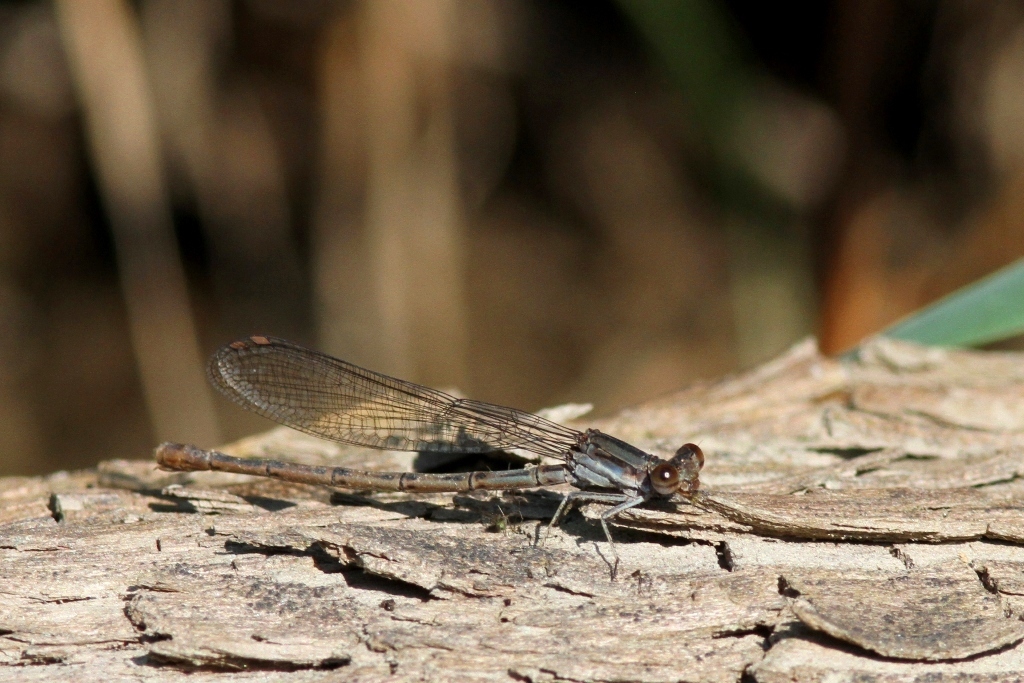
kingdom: Animalia
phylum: Arthropoda
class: Insecta
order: Odonata
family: Coenagrionidae
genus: Argia
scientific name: Argia fumipennis
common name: Variable dancer
